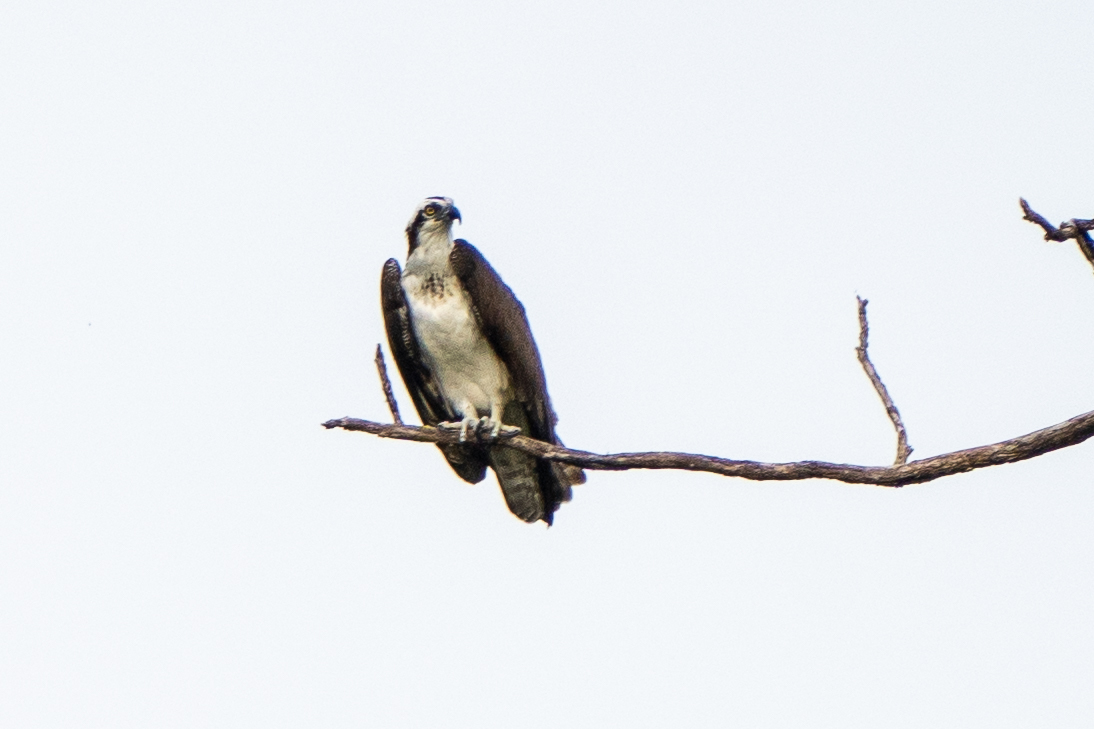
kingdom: Animalia
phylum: Chordata
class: Aves
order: Accipitriformes
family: Pandionidae
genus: Pandion
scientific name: Pandion haliaetus
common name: Osprey
